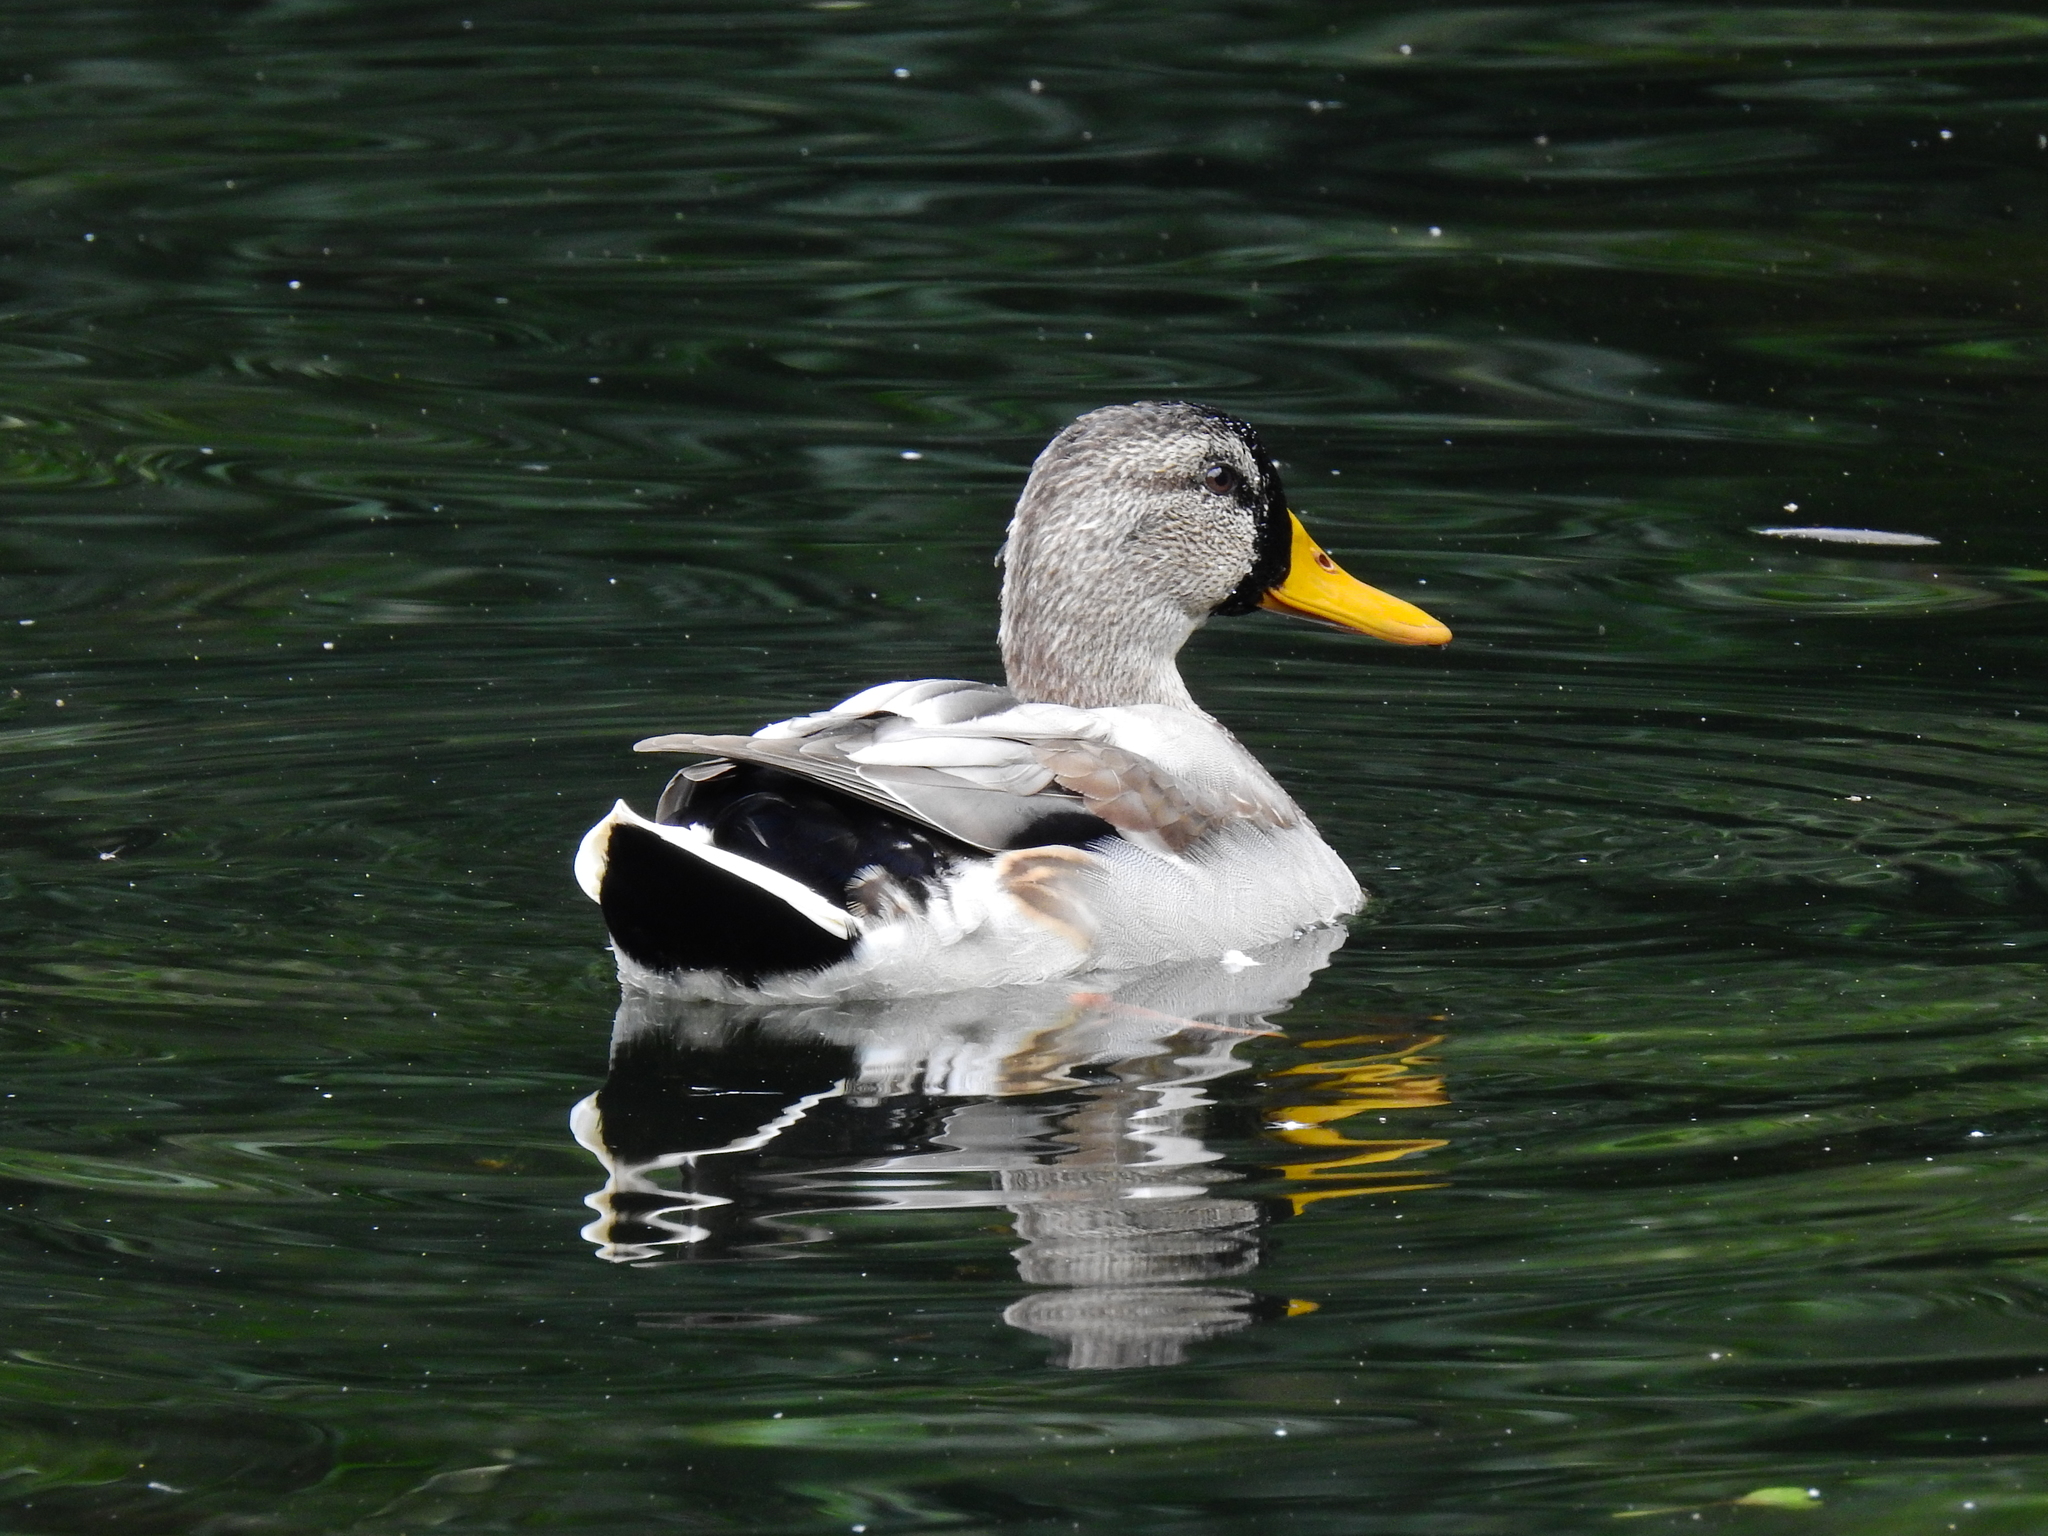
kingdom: Animalia
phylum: Chordata
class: Aves
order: Anseriformes
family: Anatidae
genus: Anas
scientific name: Anas platyrhynchos
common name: Mallard
